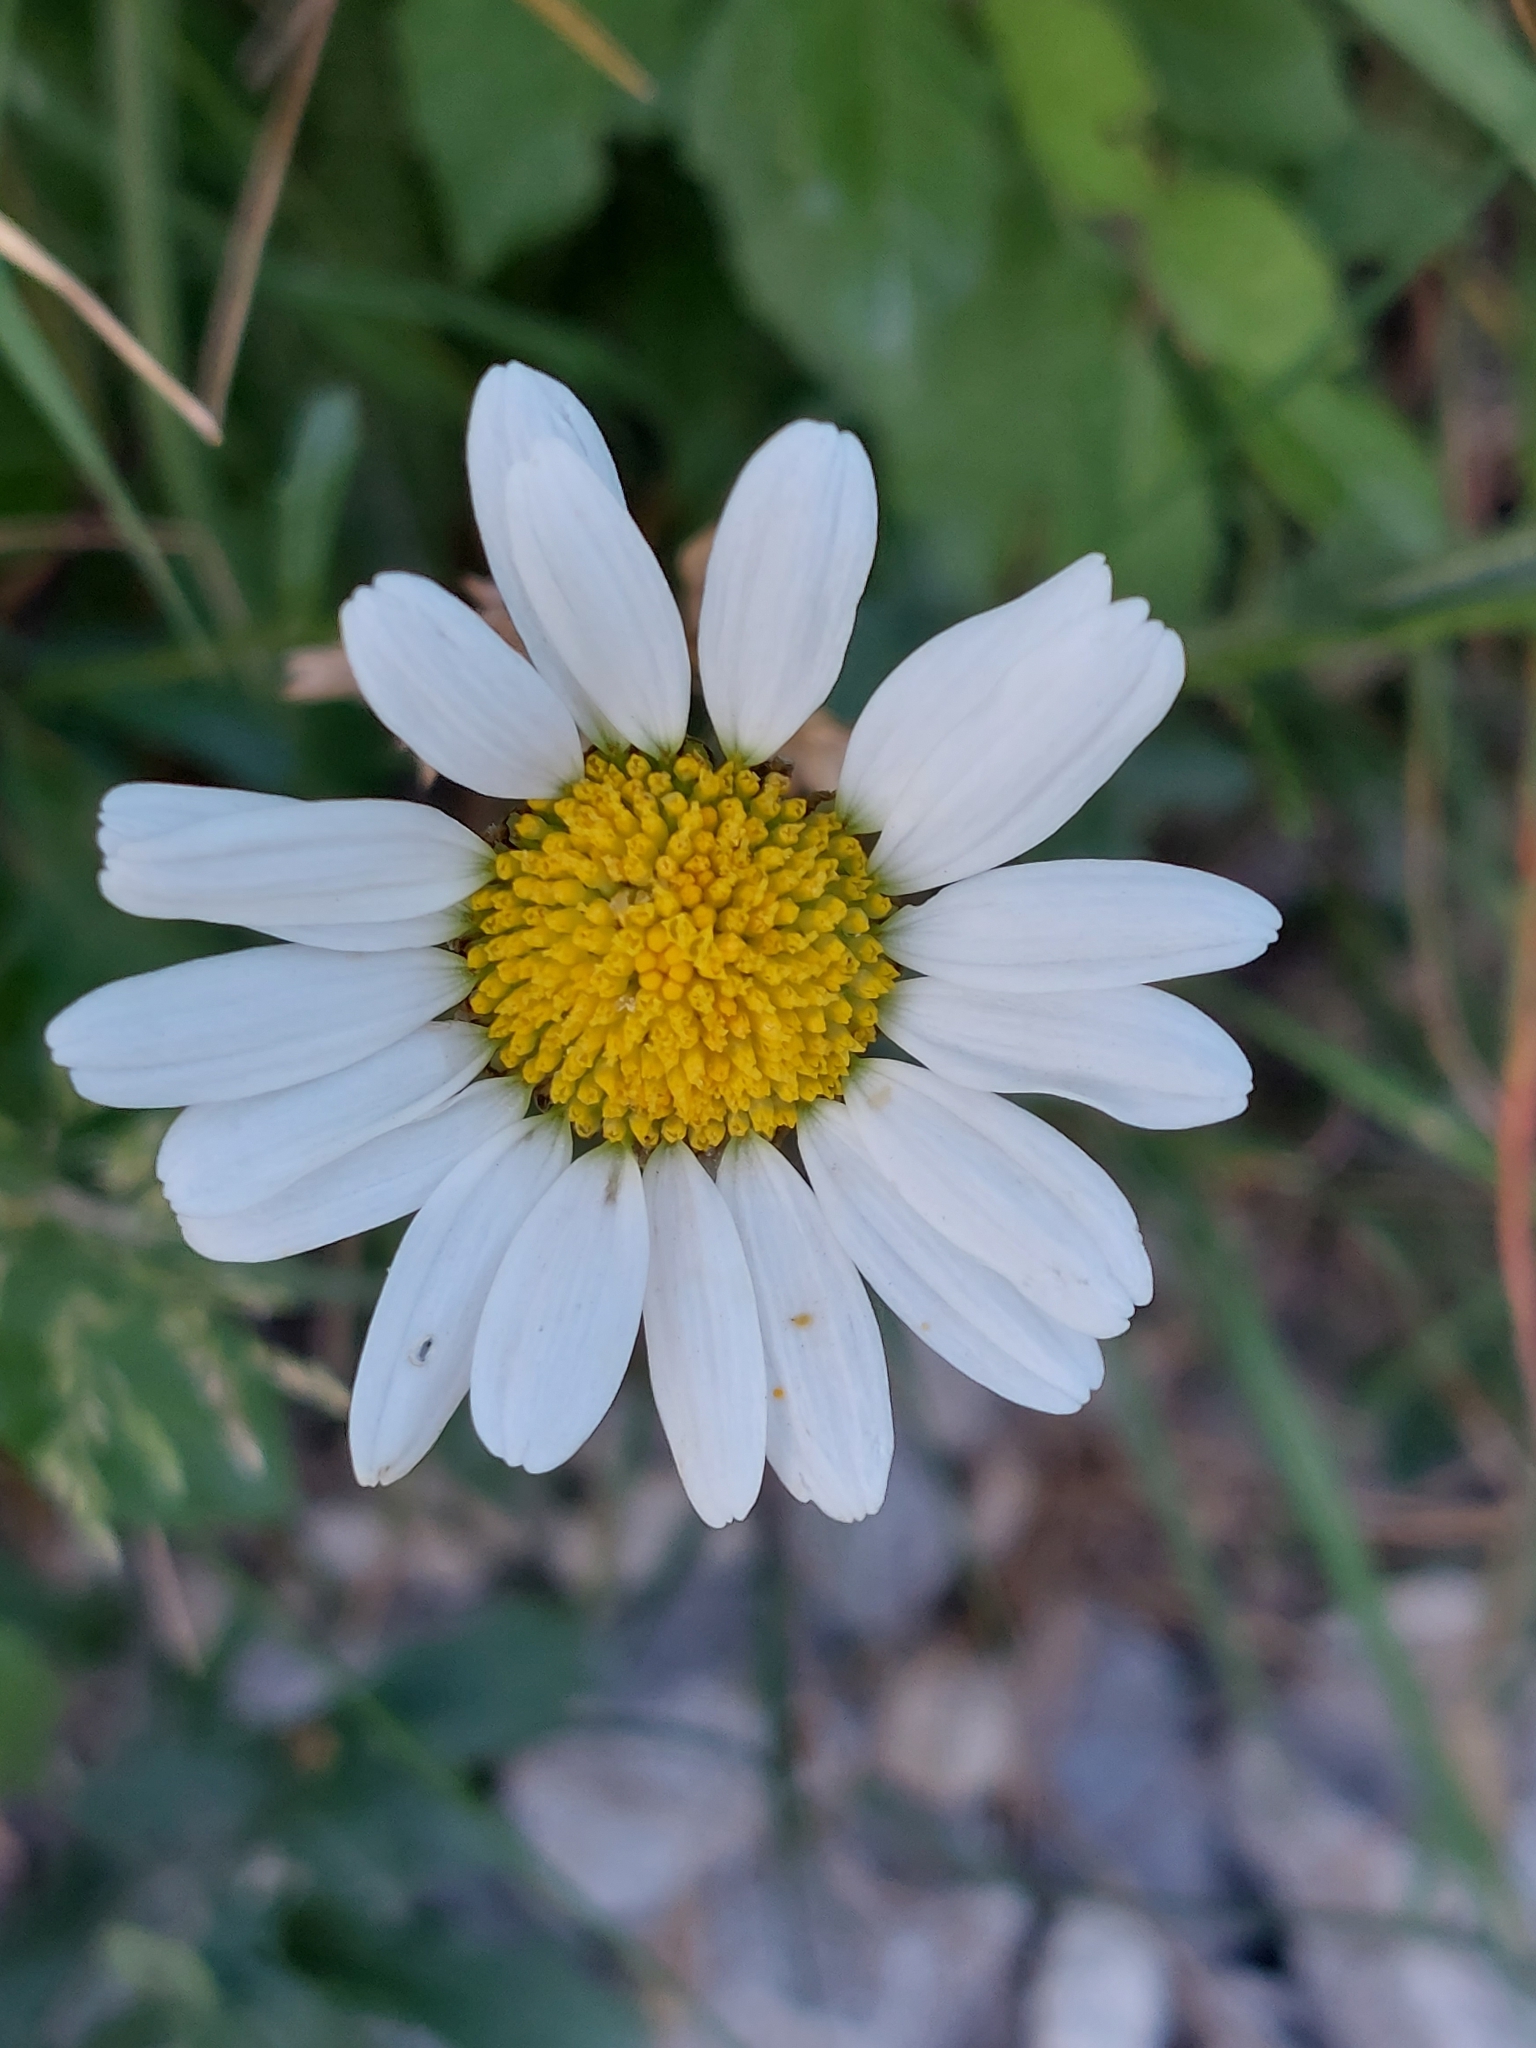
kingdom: Plantae
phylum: Tracheophyta
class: Magnoliopsida
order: Asterales
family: Asteraceae
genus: Leucanthemum
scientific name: Leucanthemum vulgare
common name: Oxeye daisy
